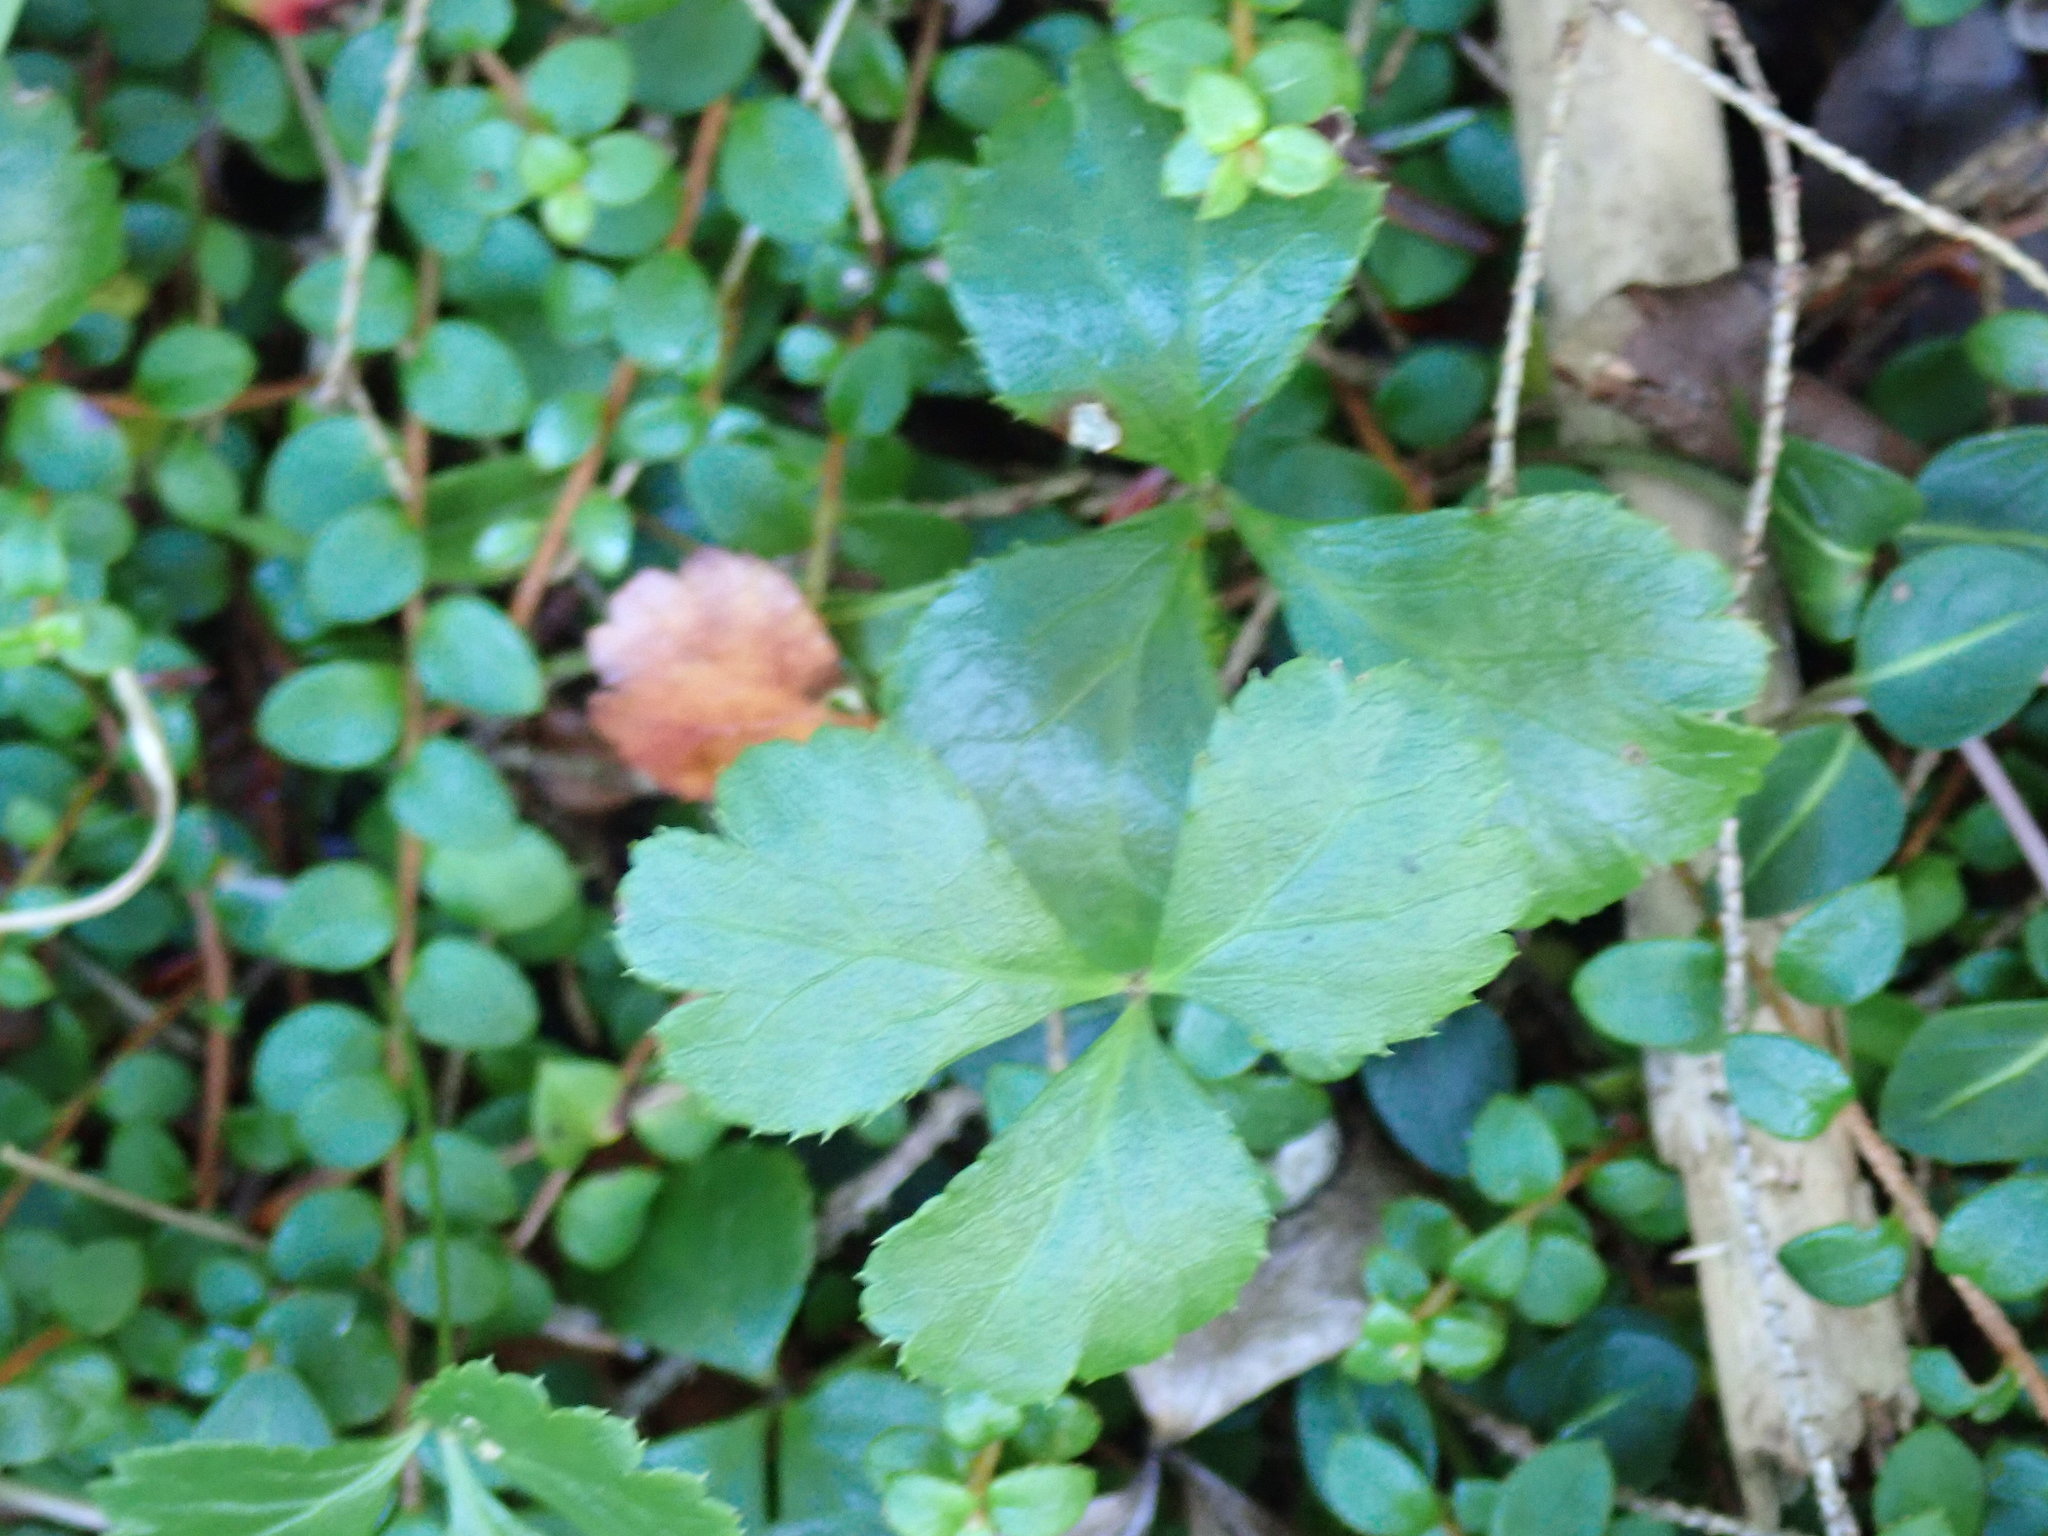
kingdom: Plantae
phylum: Tracheophyta
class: Magnoliopsida
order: Ranunculales
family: Ranunculaceae
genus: Coptis
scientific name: Coptis trifolia
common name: Canker-root
